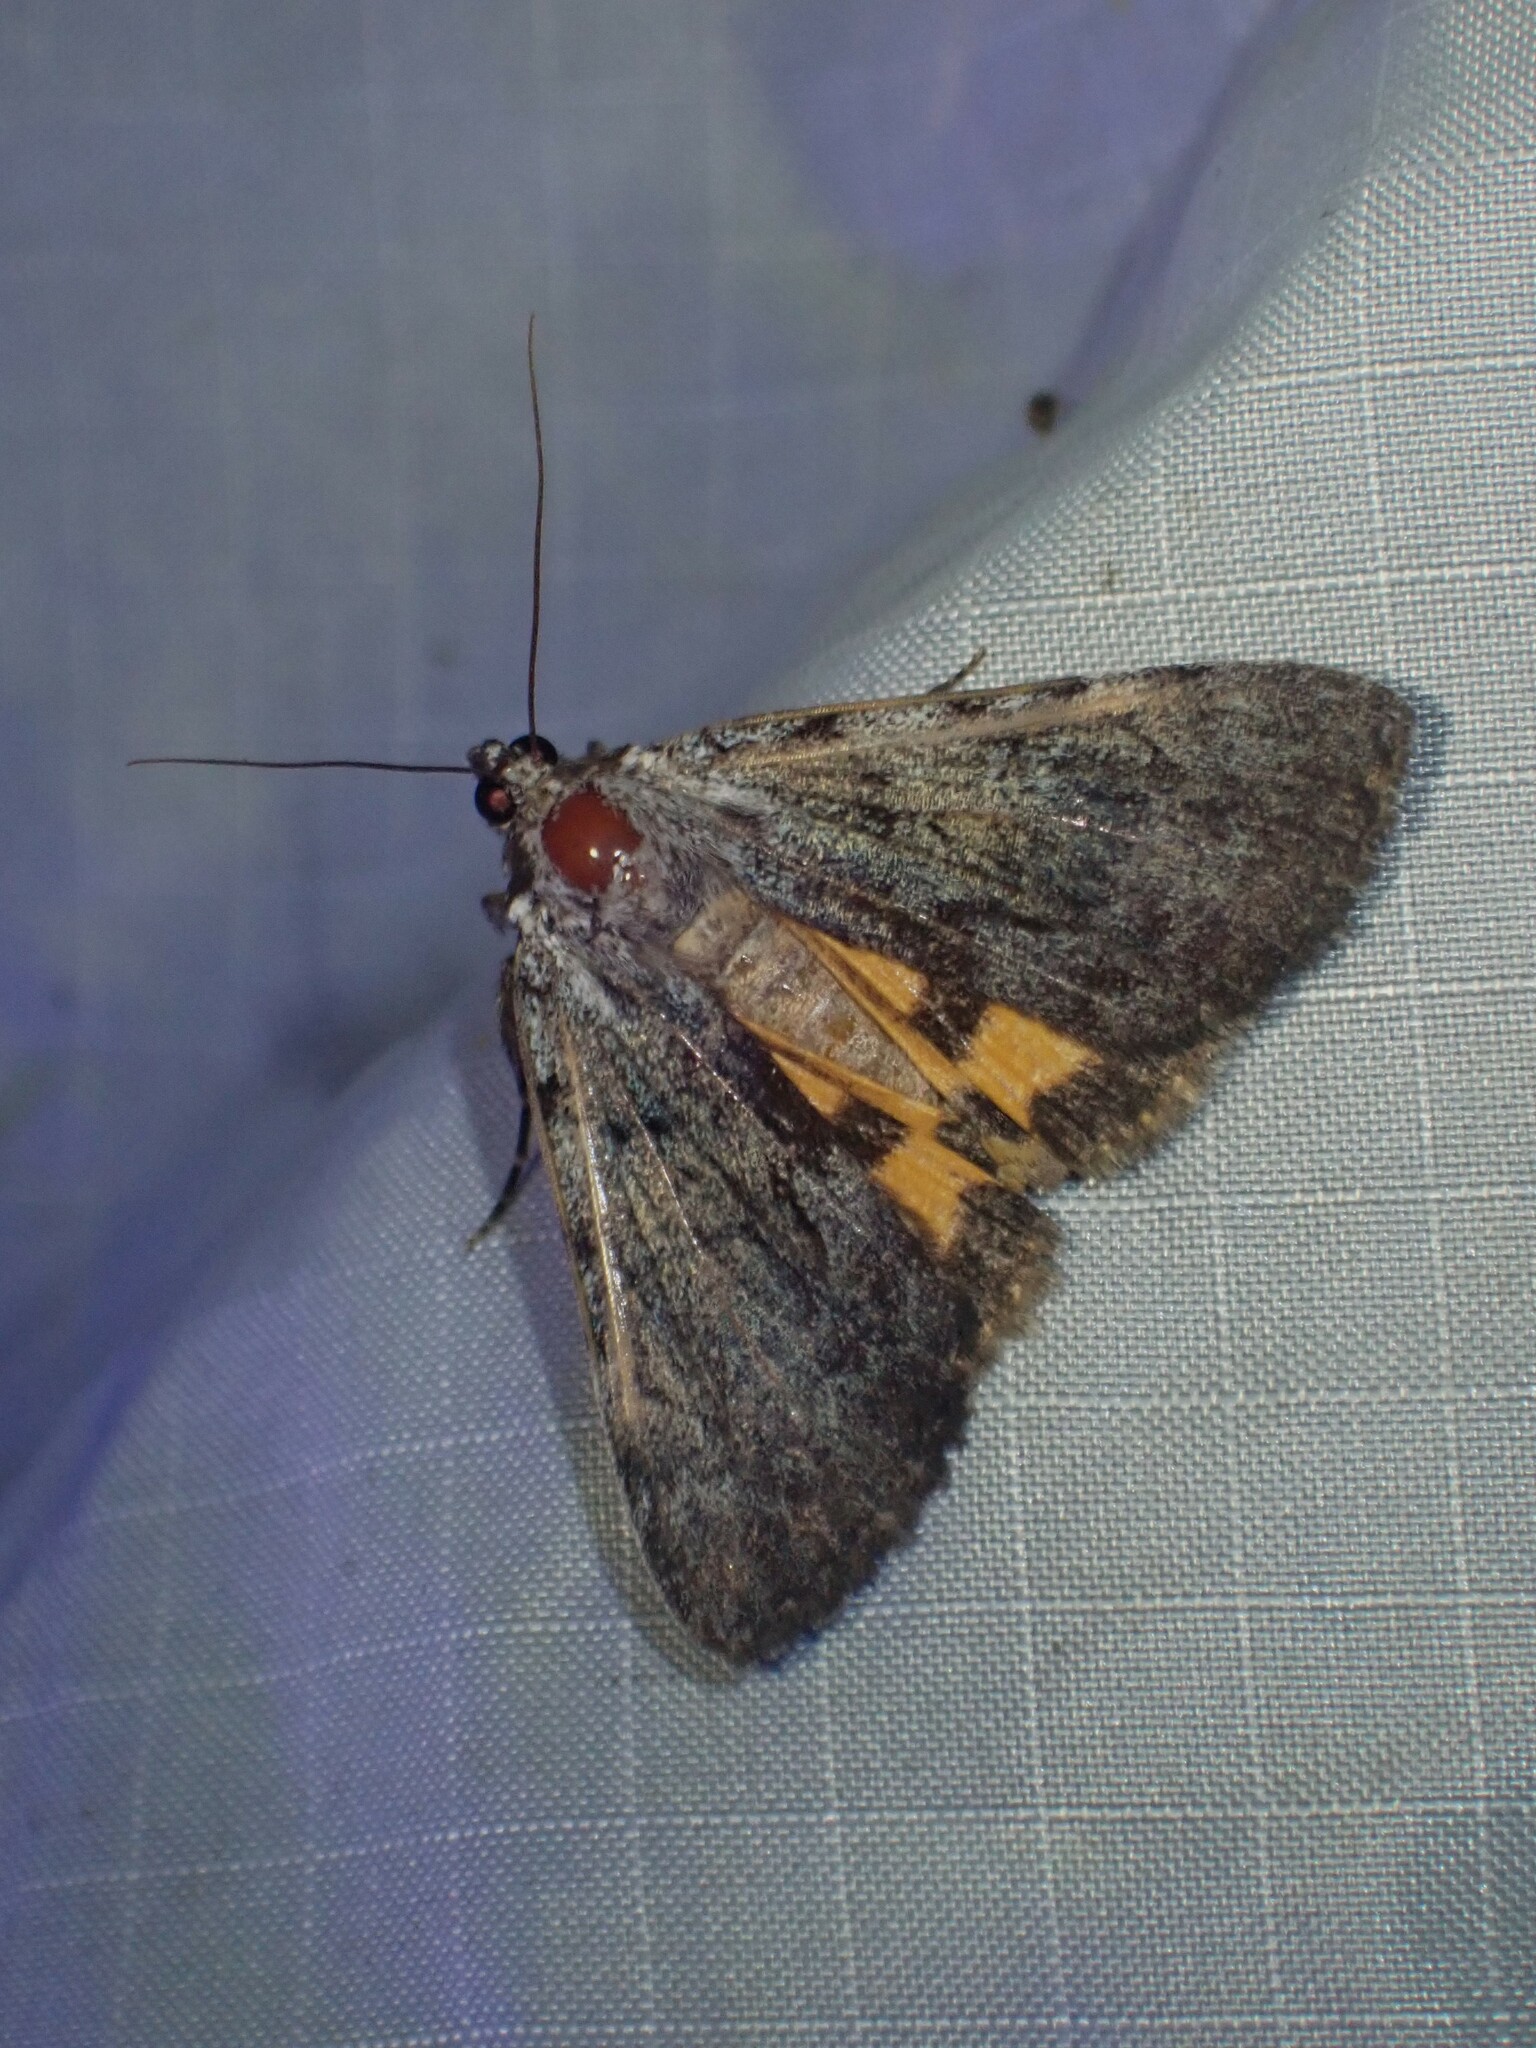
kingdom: Animalia
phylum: Arthropoda
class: Insecta
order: Lepidoptera
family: Erebidae
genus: Catocala
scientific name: Catocala sordida
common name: Sordid underwing
